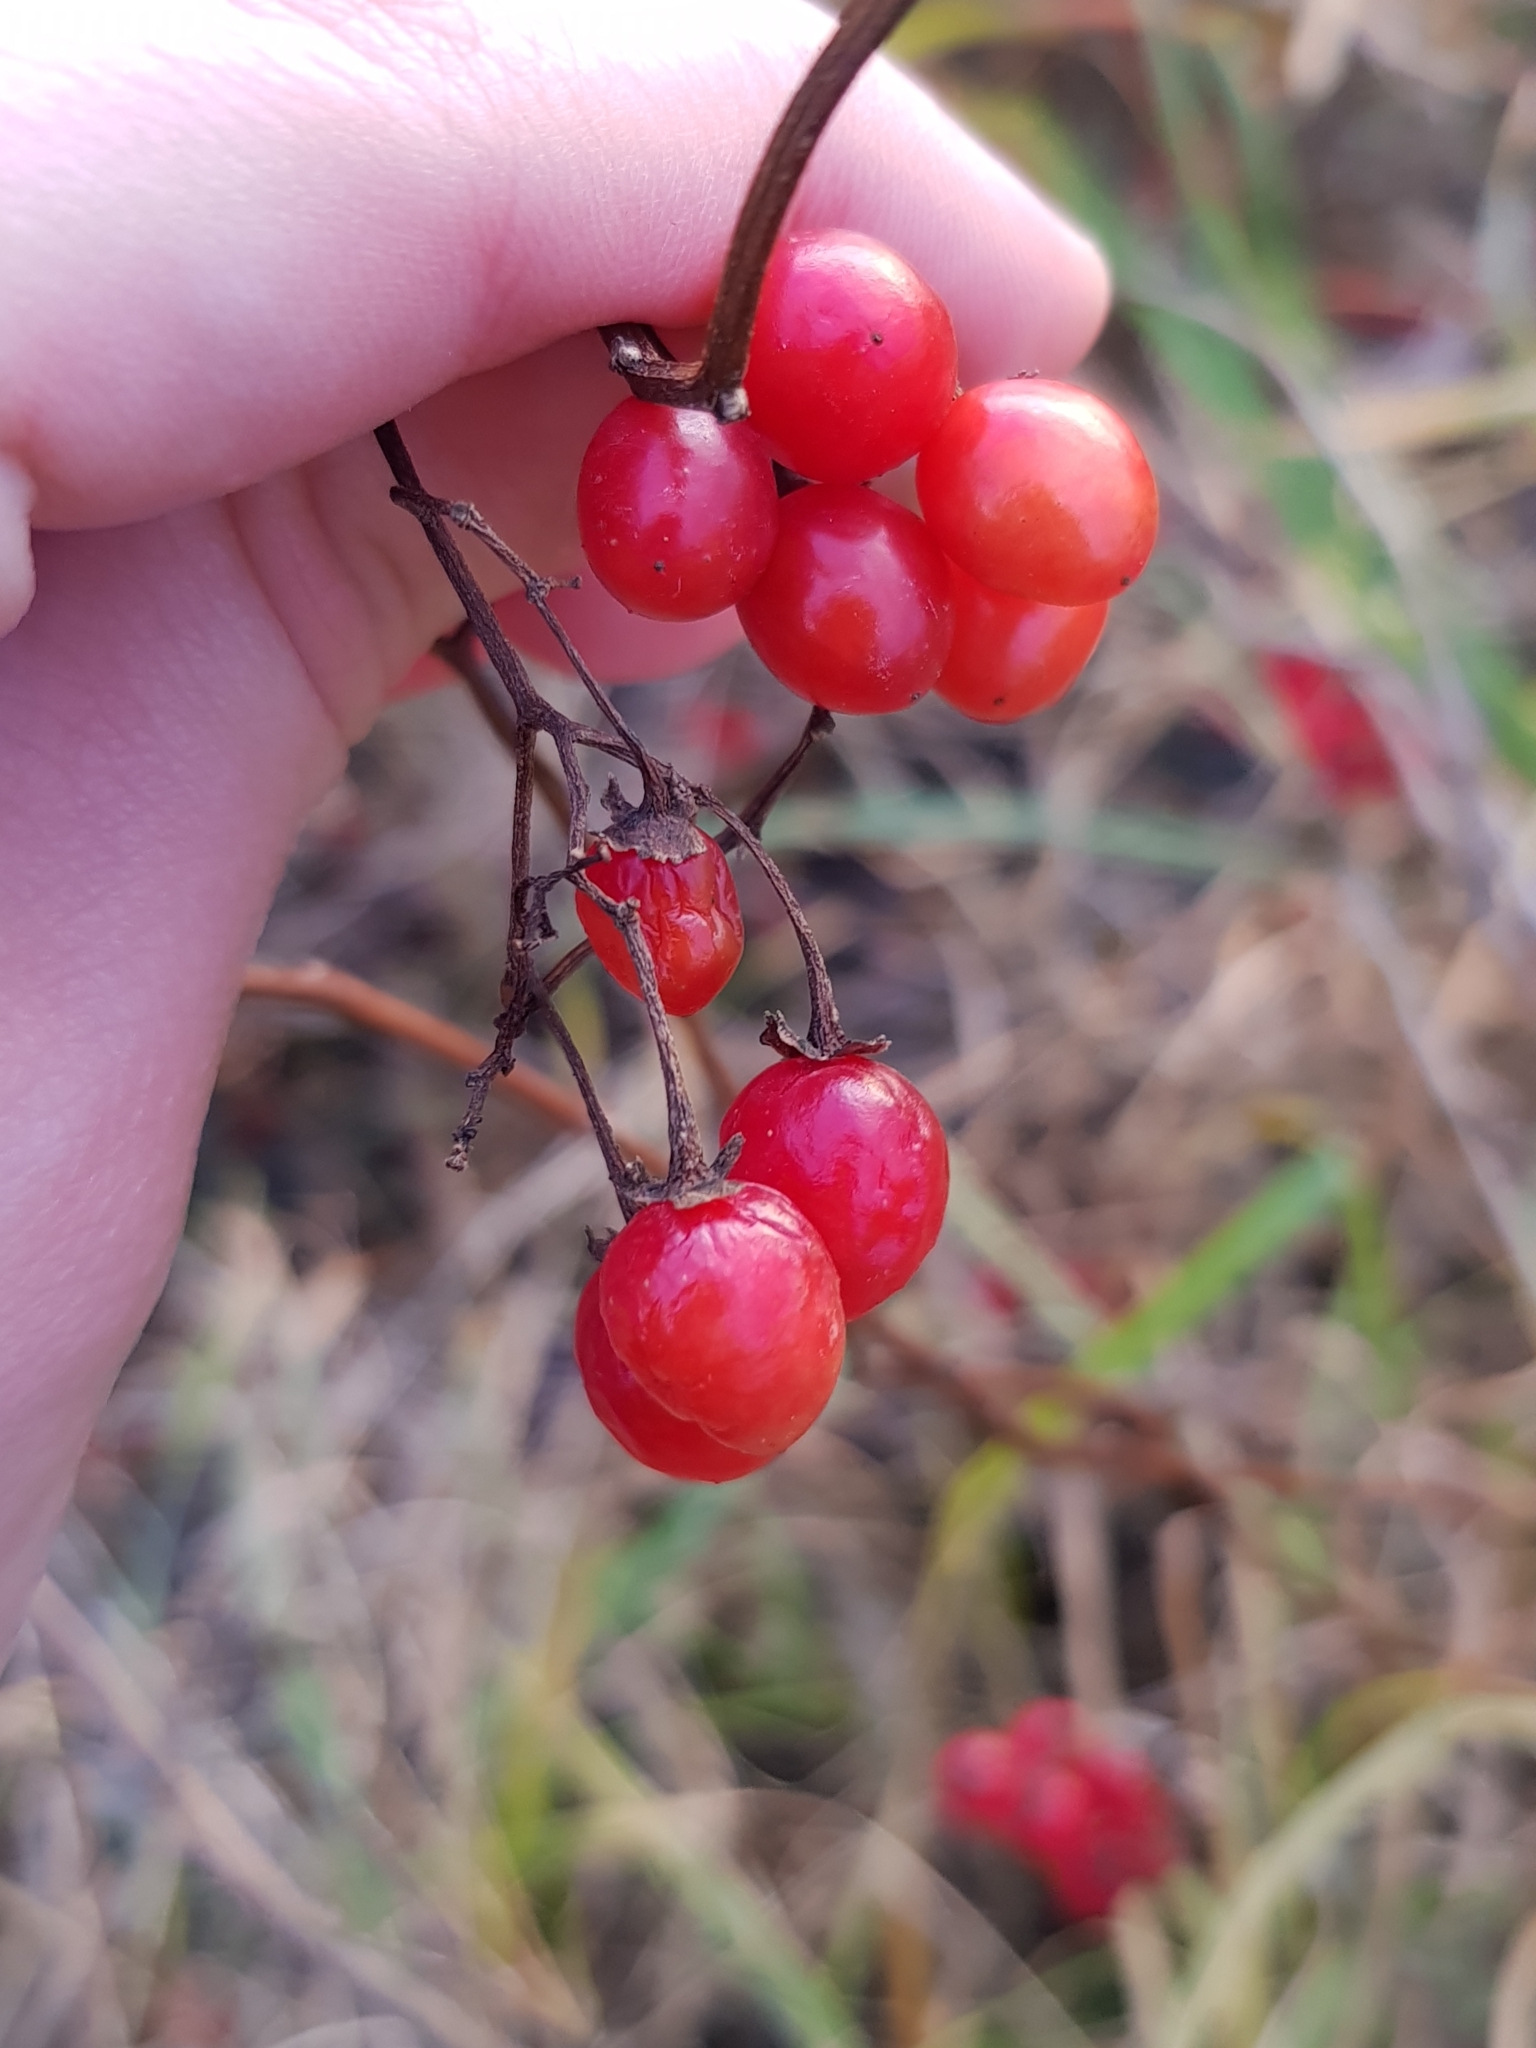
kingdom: Plantae
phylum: Tracheophyta
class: Magnoliopsida
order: Solanales
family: Solanaceae
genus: Solanum
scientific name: Solanum dulcamara
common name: Climbing nightshade
